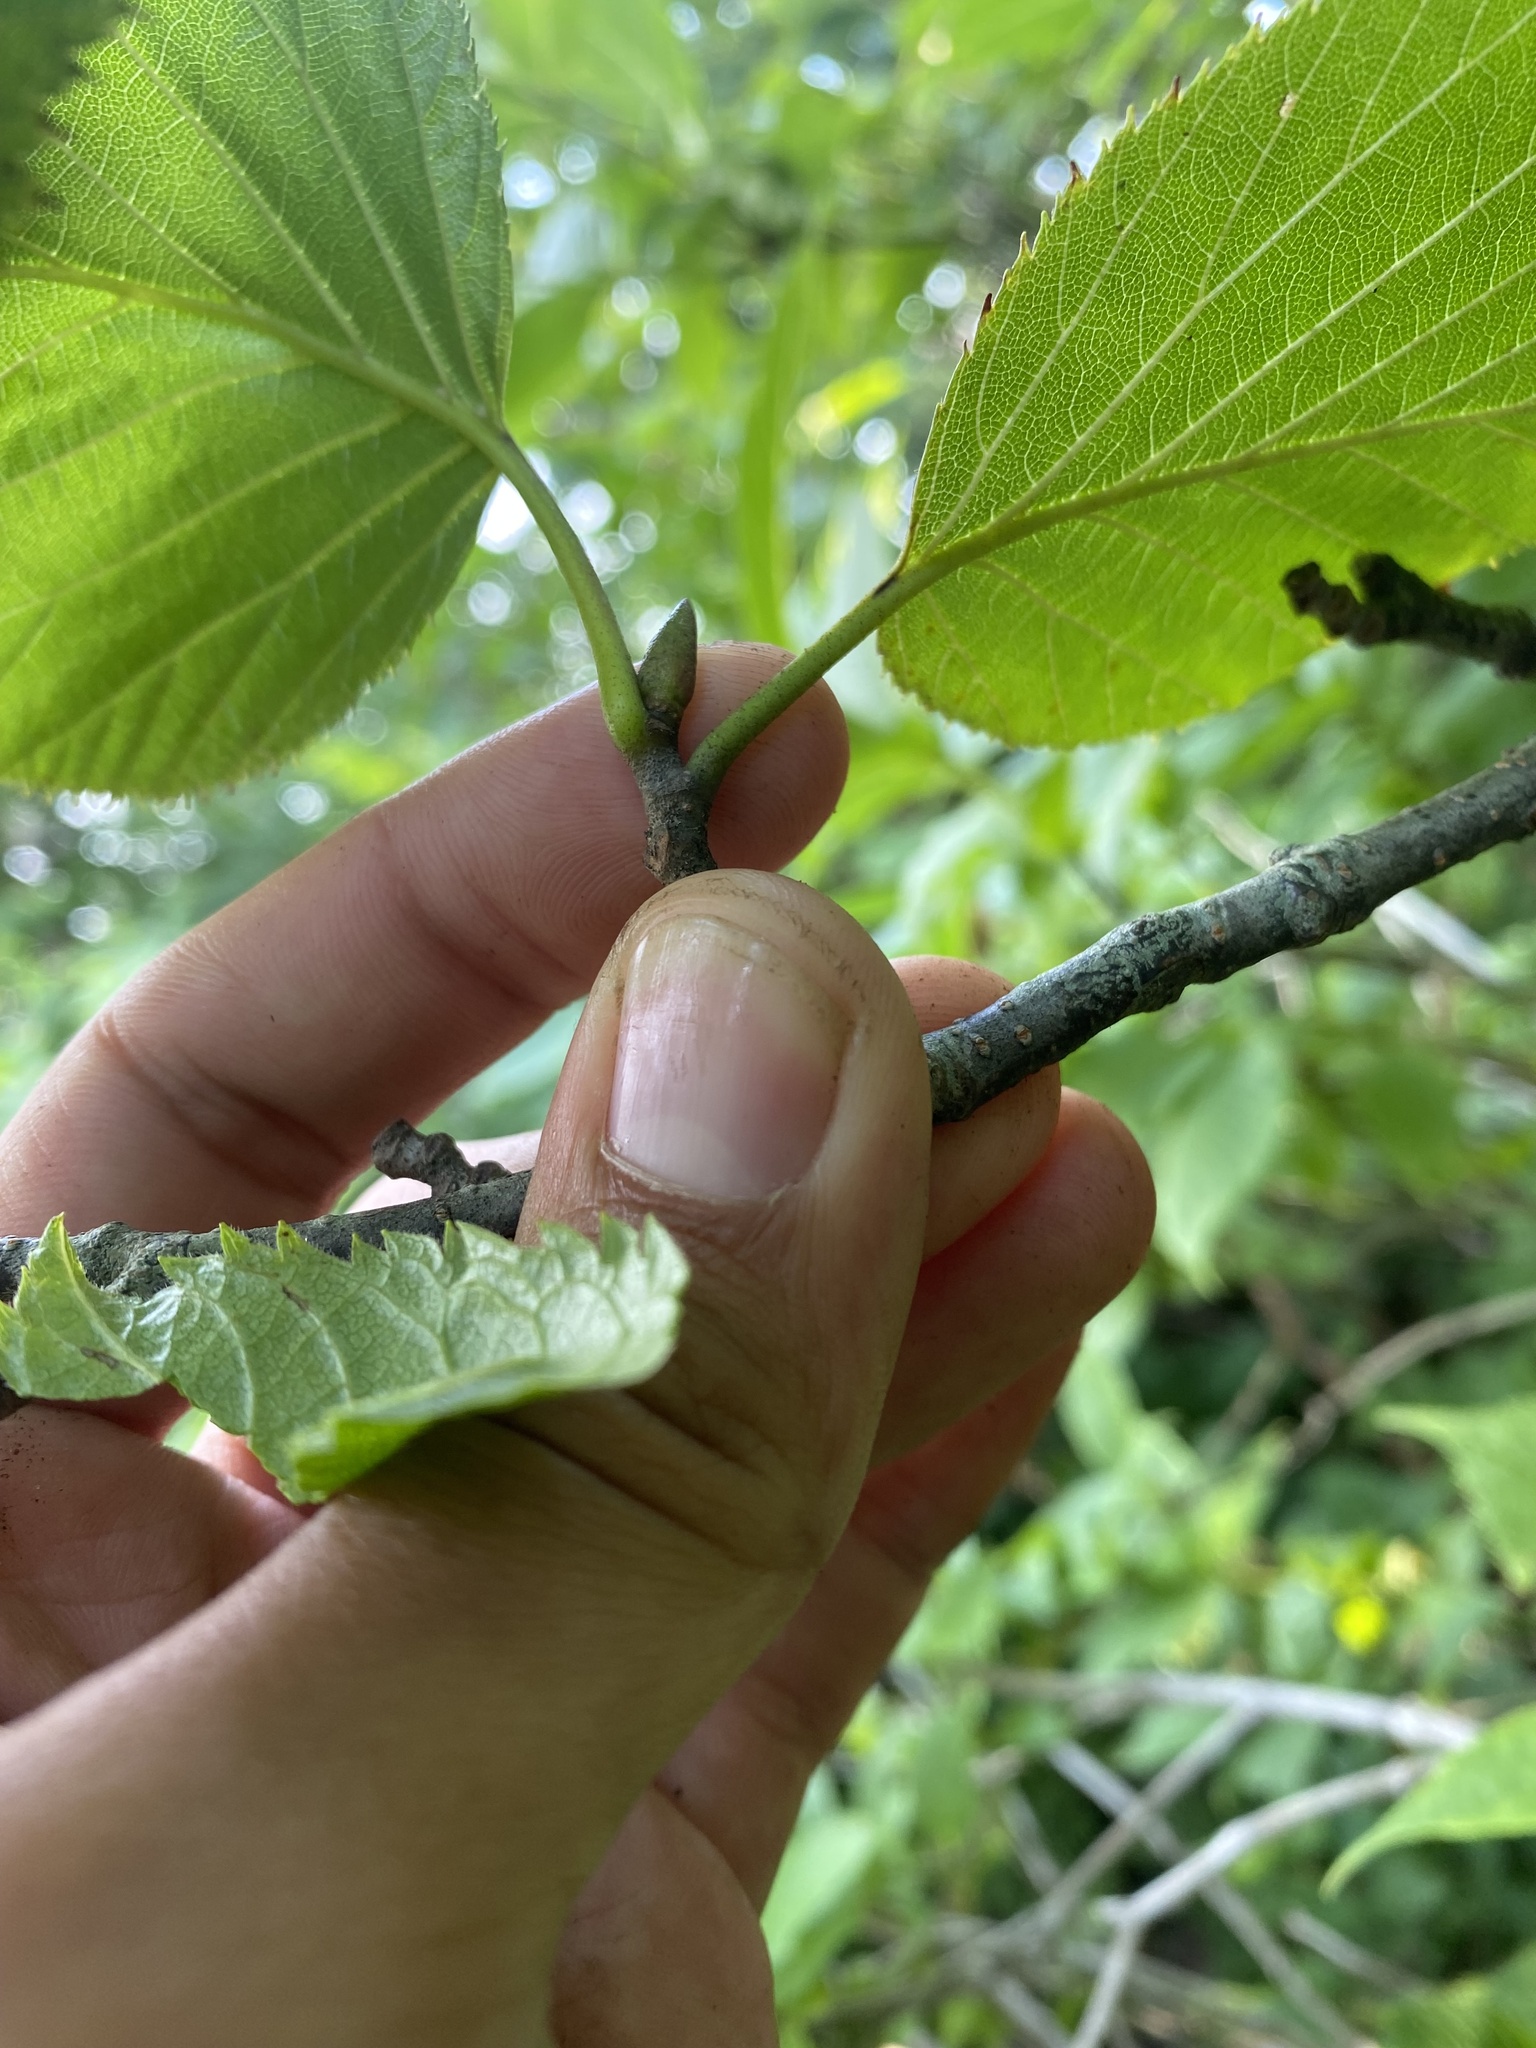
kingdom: Plantae
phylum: Tracheophyta
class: Magnoliopsida
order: Fagales
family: Betulaceae
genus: Alnus
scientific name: Alnus maximowiczii
